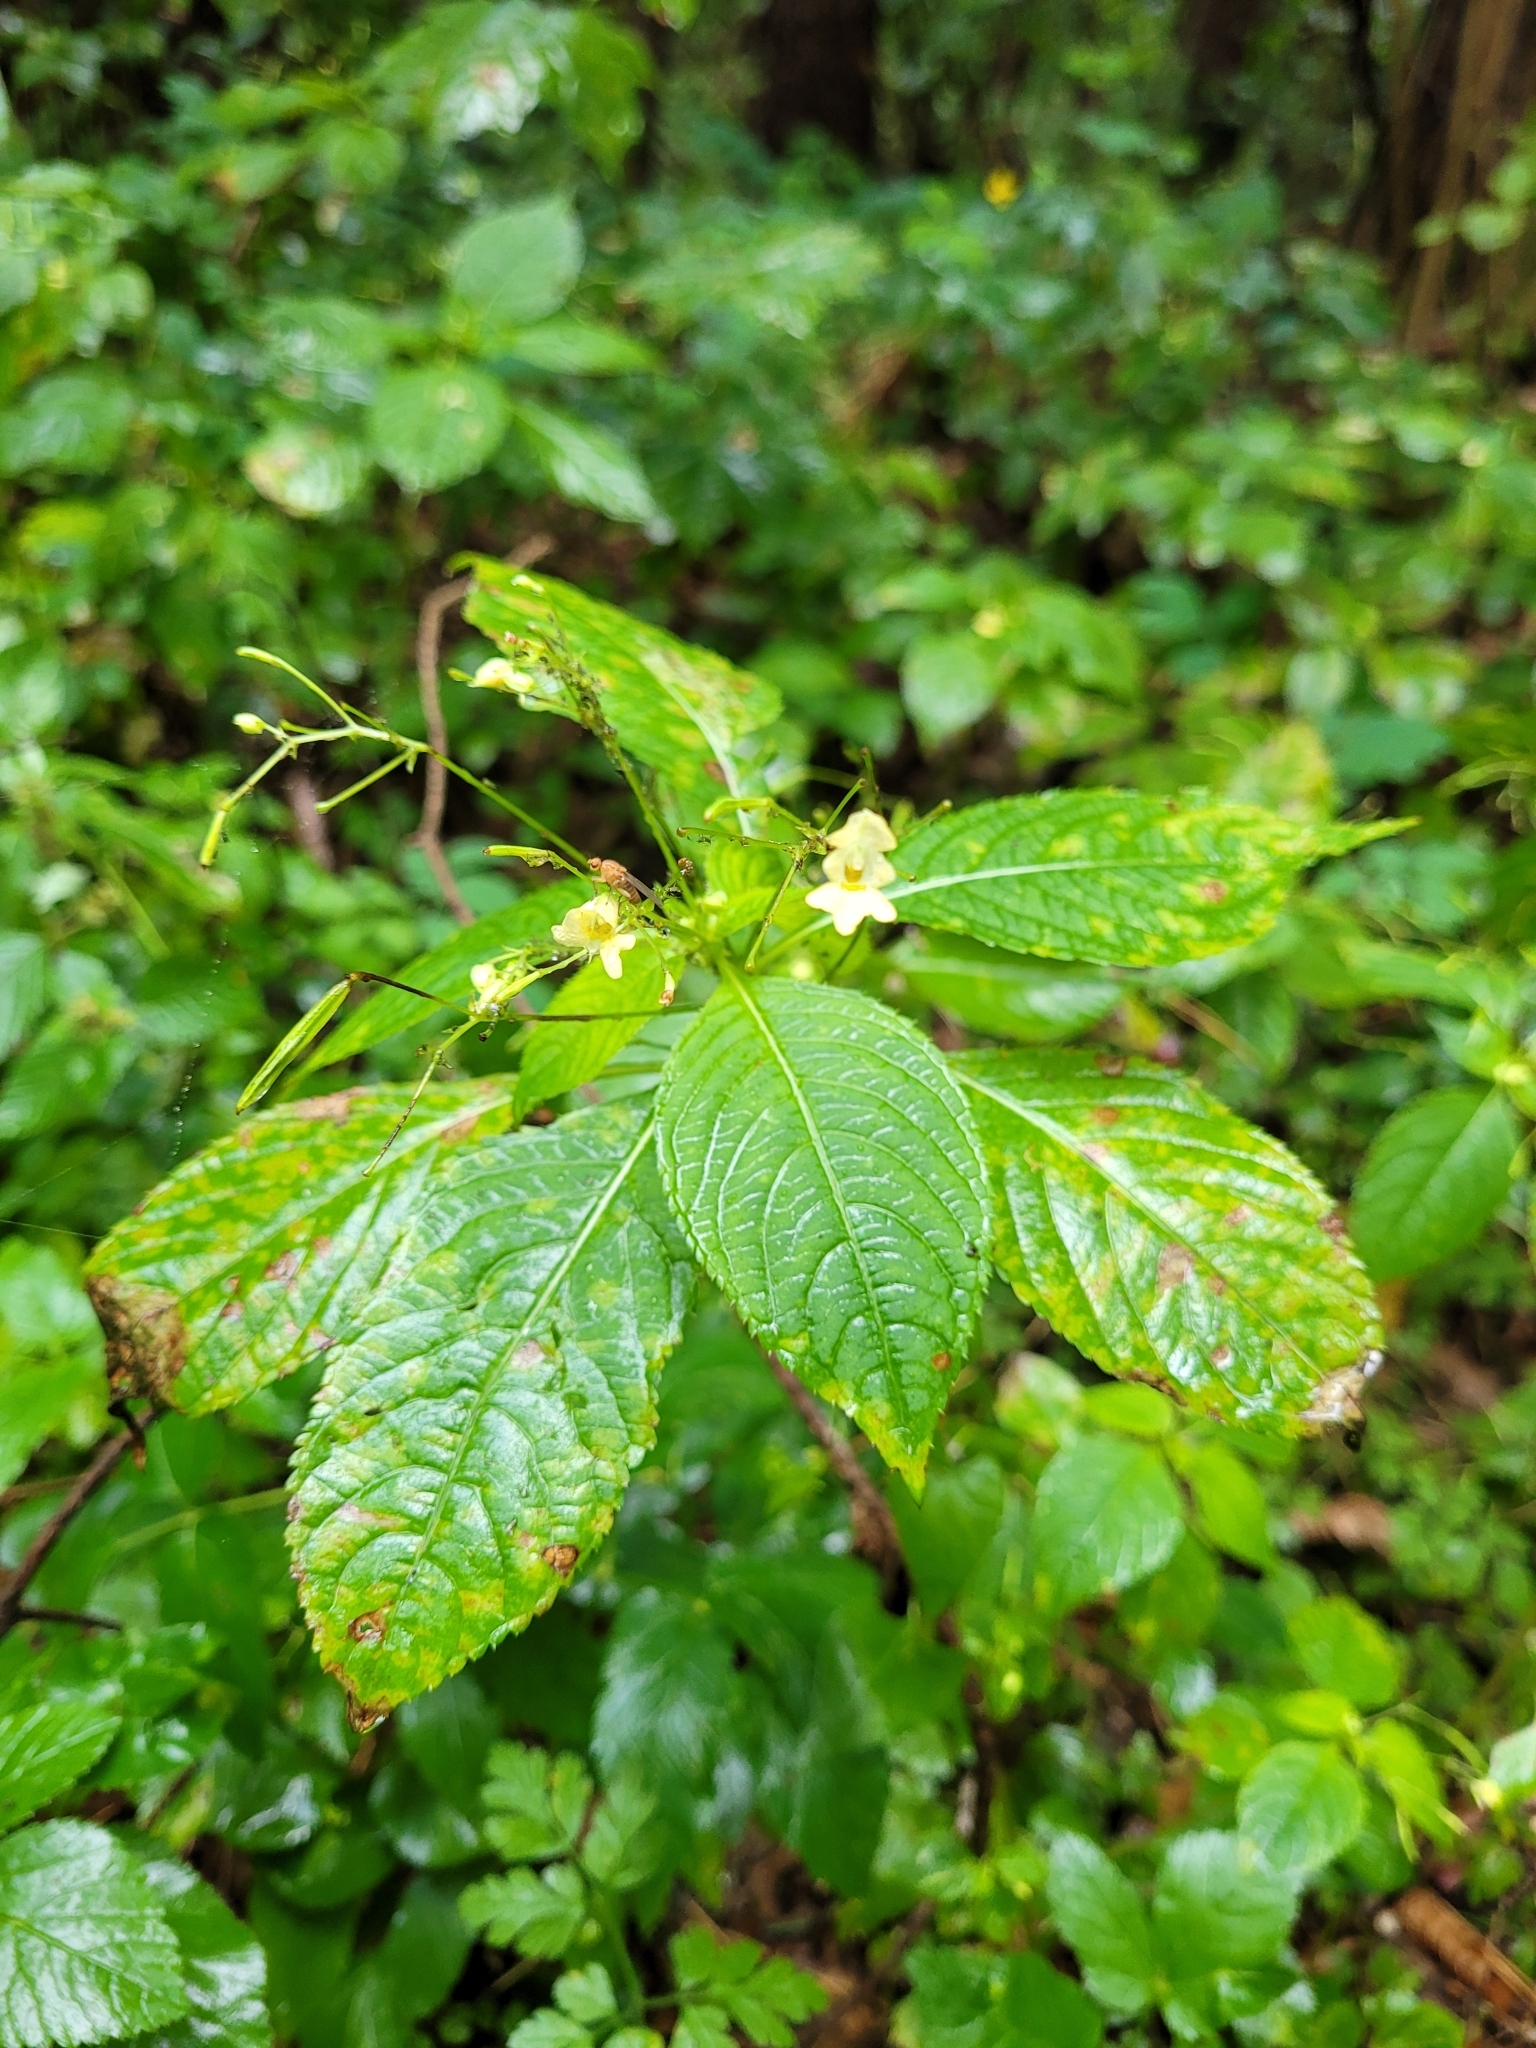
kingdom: Plantae
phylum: Tracheophyta
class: Magnoliopsida
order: Ericales
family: Balsaminaceae
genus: Impatiens
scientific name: Impatiens parviflora
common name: Small balsam
